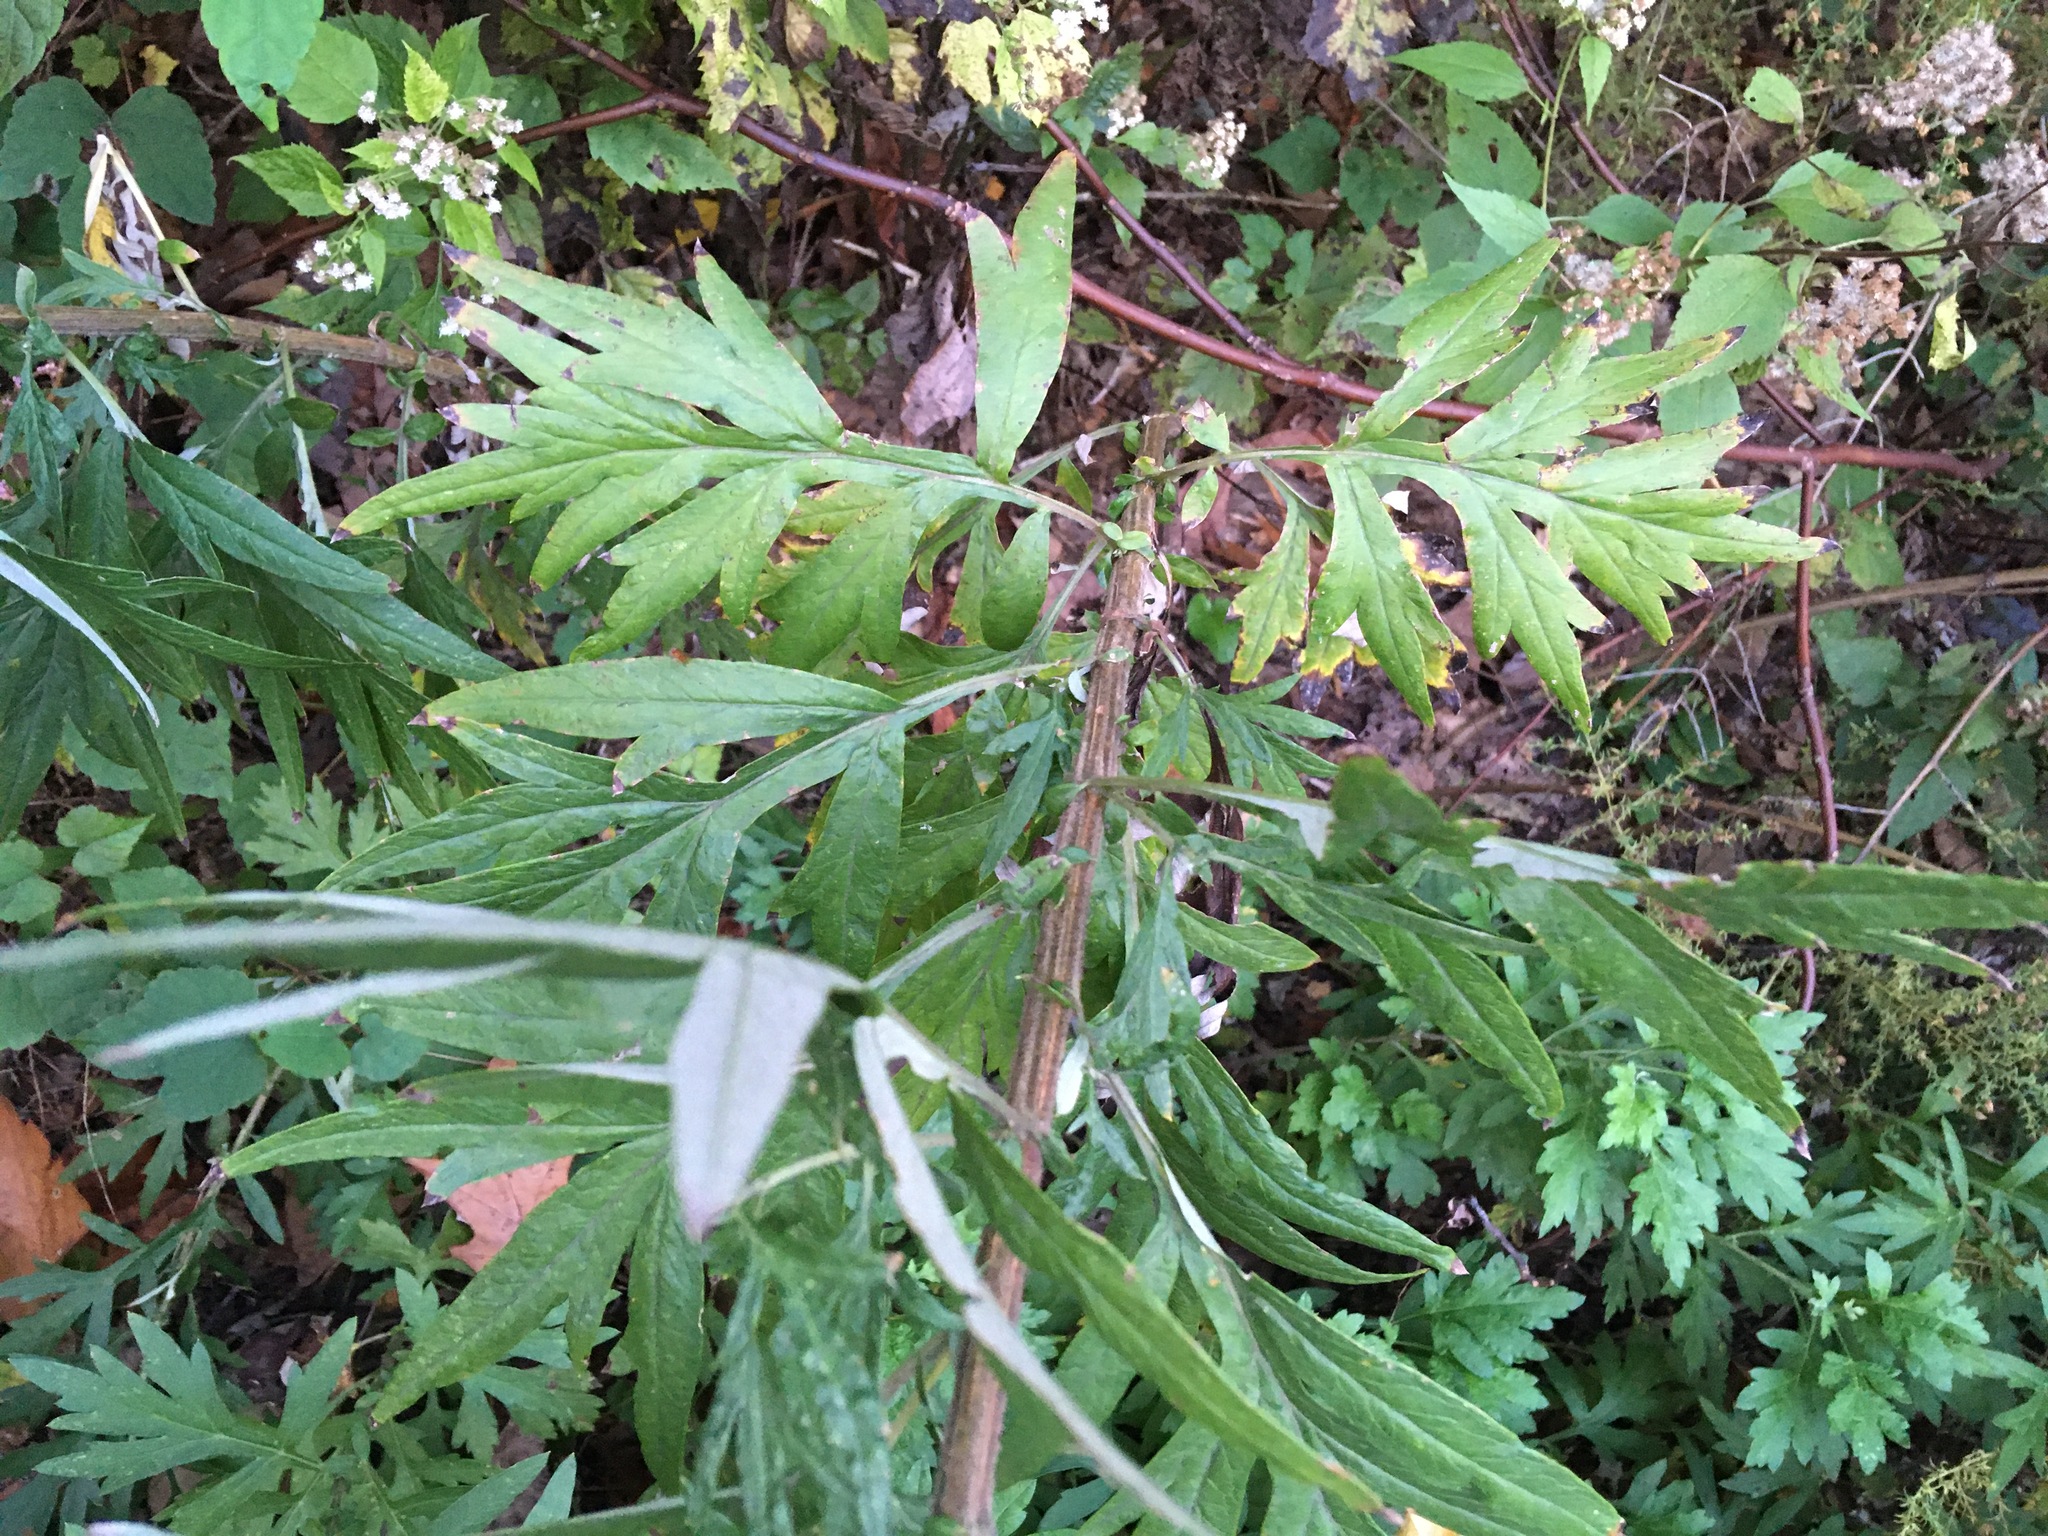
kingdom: Plantae
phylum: Tracheophyta
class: Magnoliopsida
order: Asterales
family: Asteraceae
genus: Artemisia
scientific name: Artemisia vulgaris
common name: Mugwort
